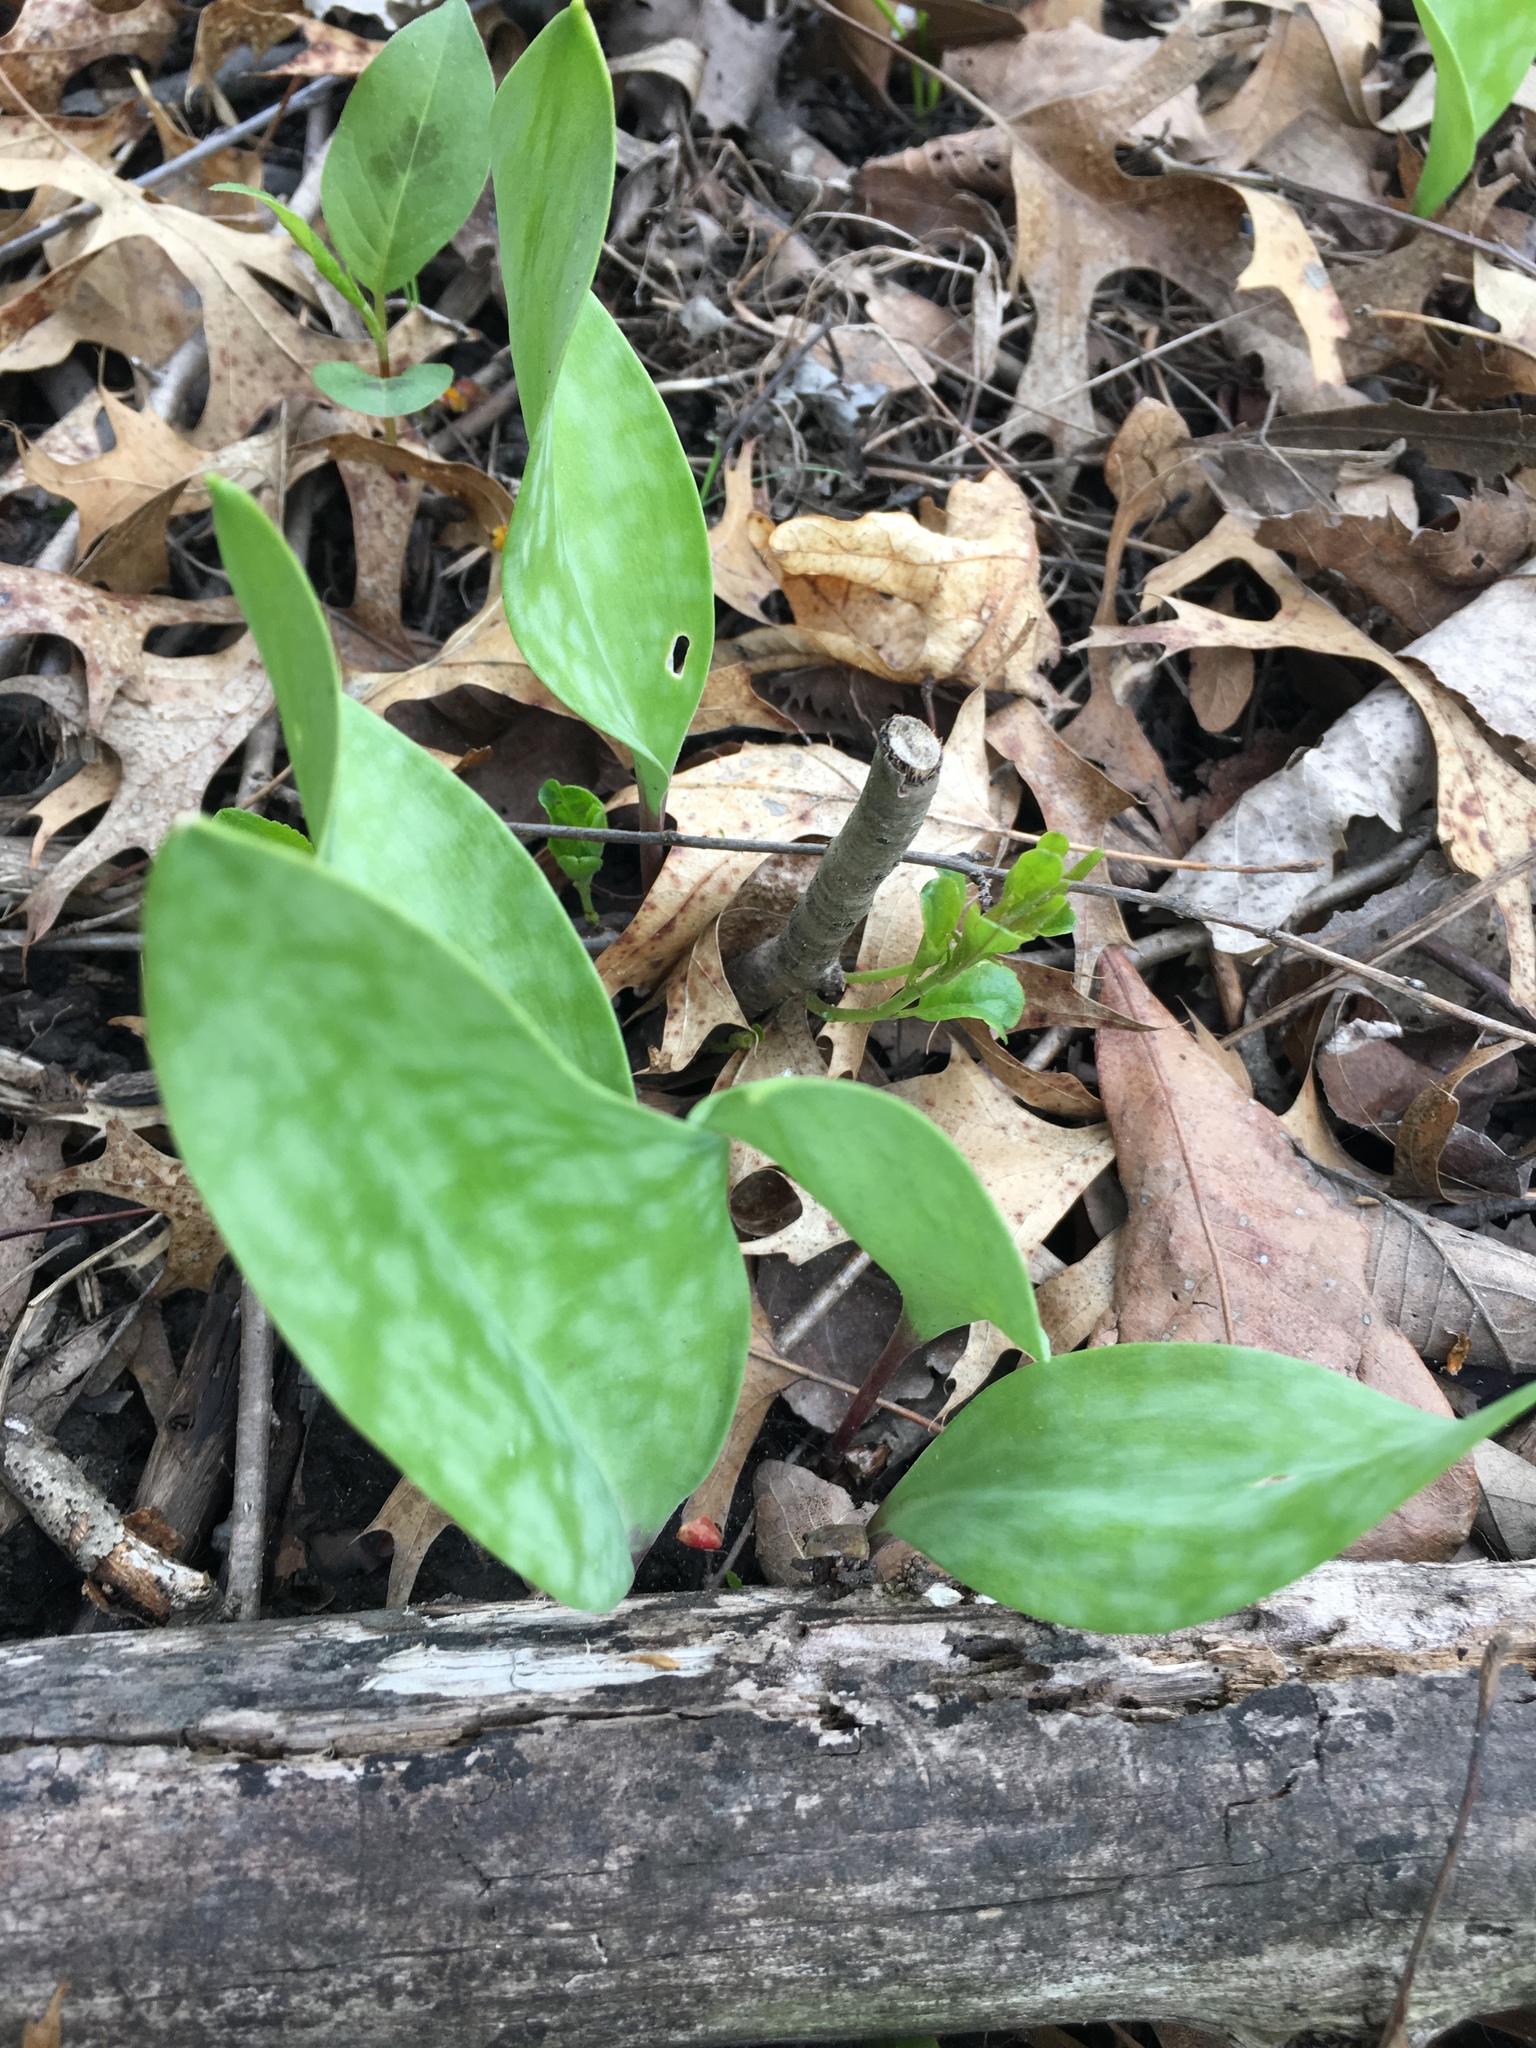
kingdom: Plantae
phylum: Tracheophyta
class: Liliopsida
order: Liliales
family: Liliaceae
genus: Erythronium
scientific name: Erythronium albidum
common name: White trout-lily
